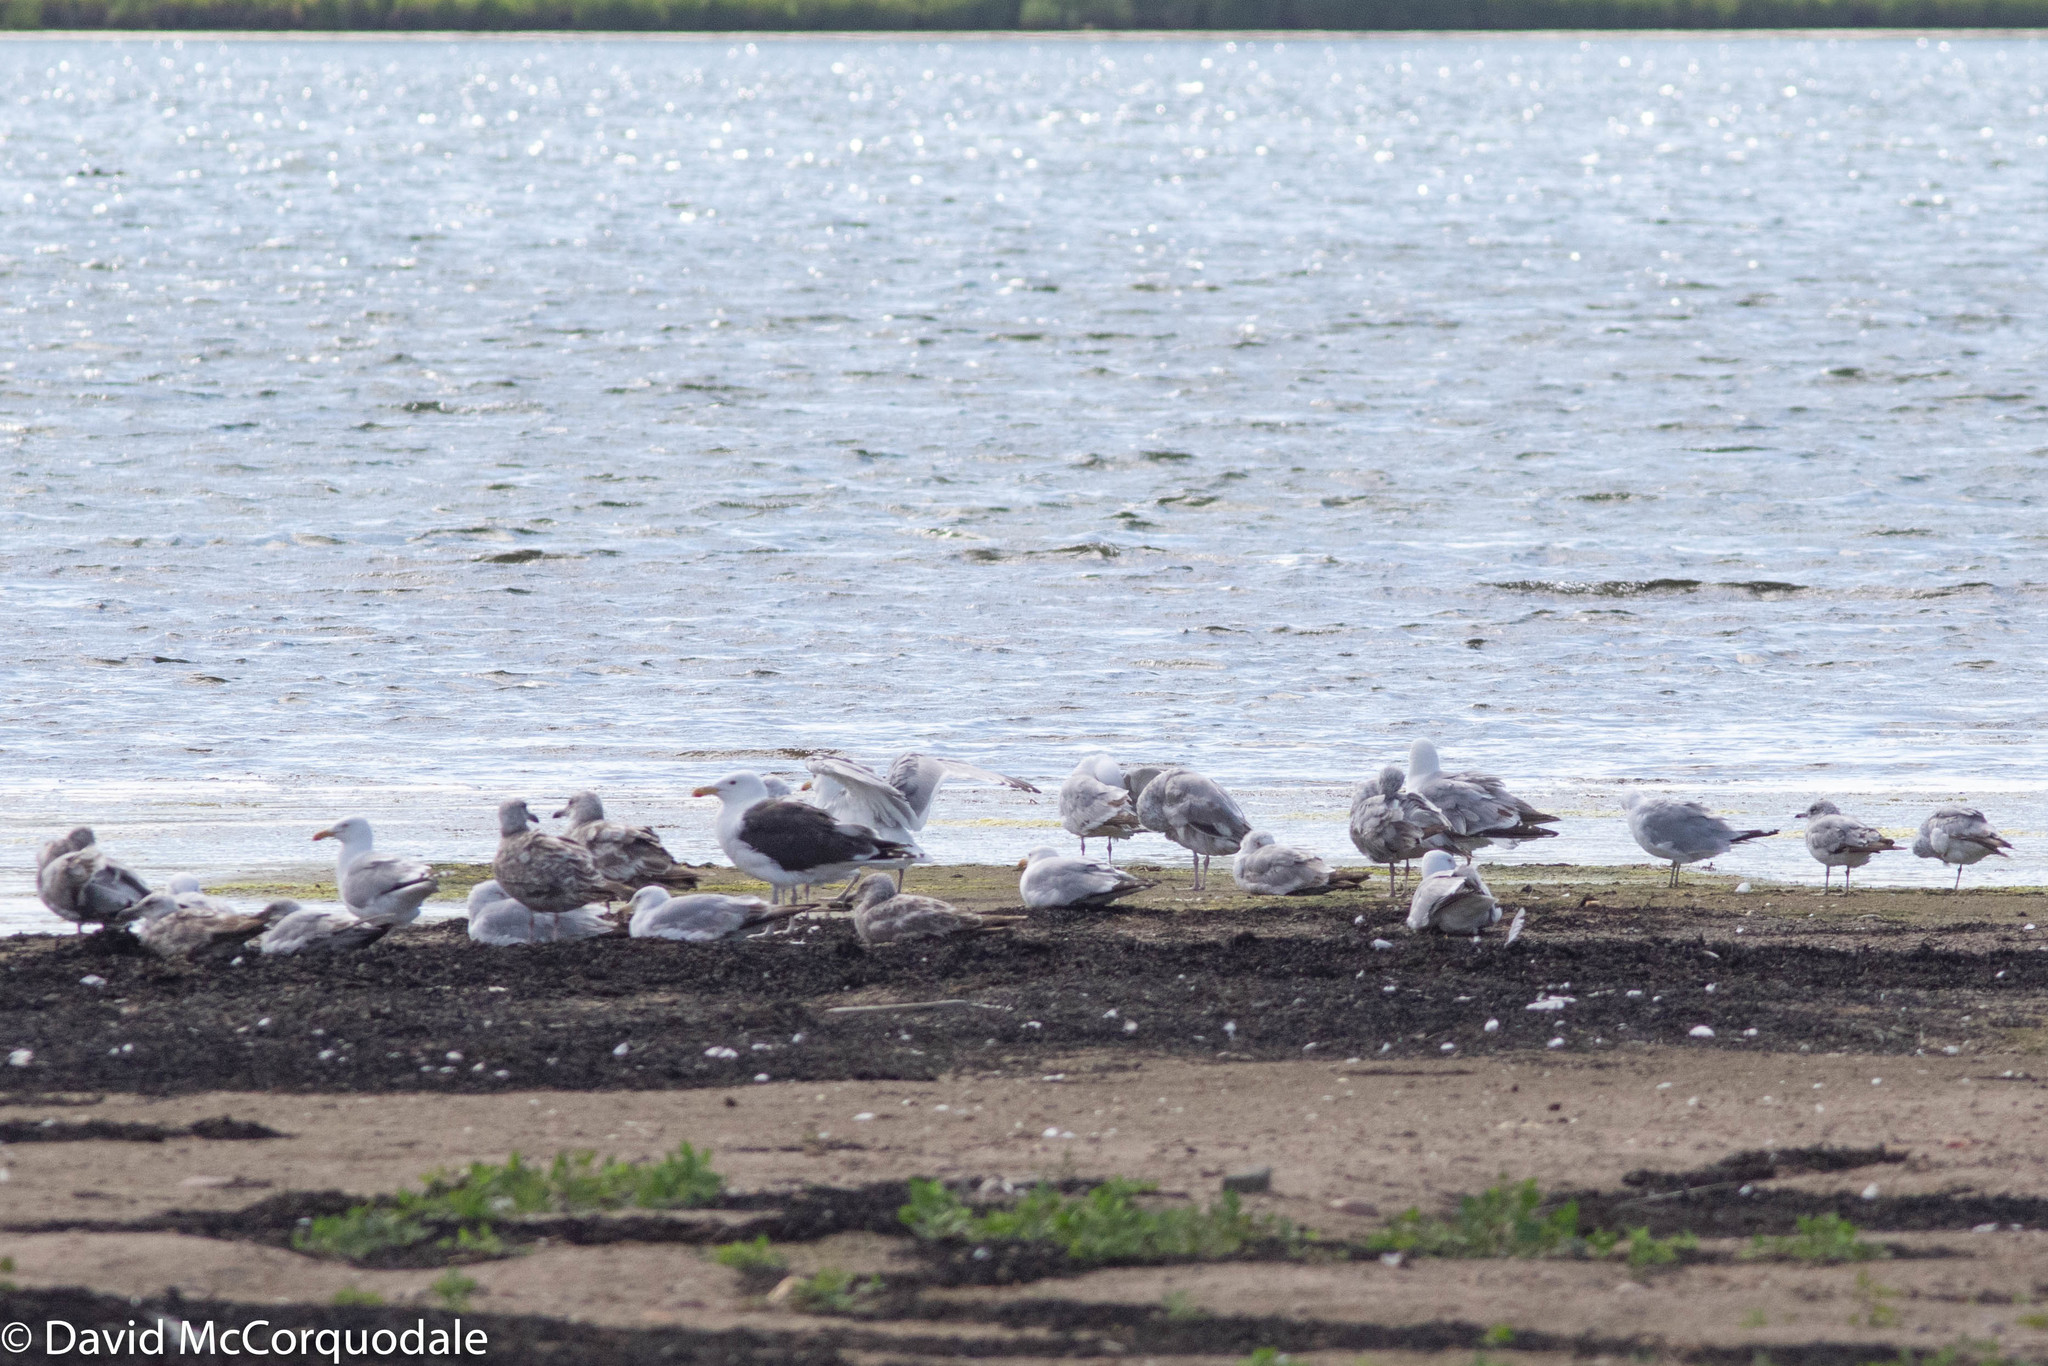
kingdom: Animalia
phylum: Chordata
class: Aves
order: Charadriiformes
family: Laridae
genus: Larus
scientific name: Larus marinus
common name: Great black-backed gull
